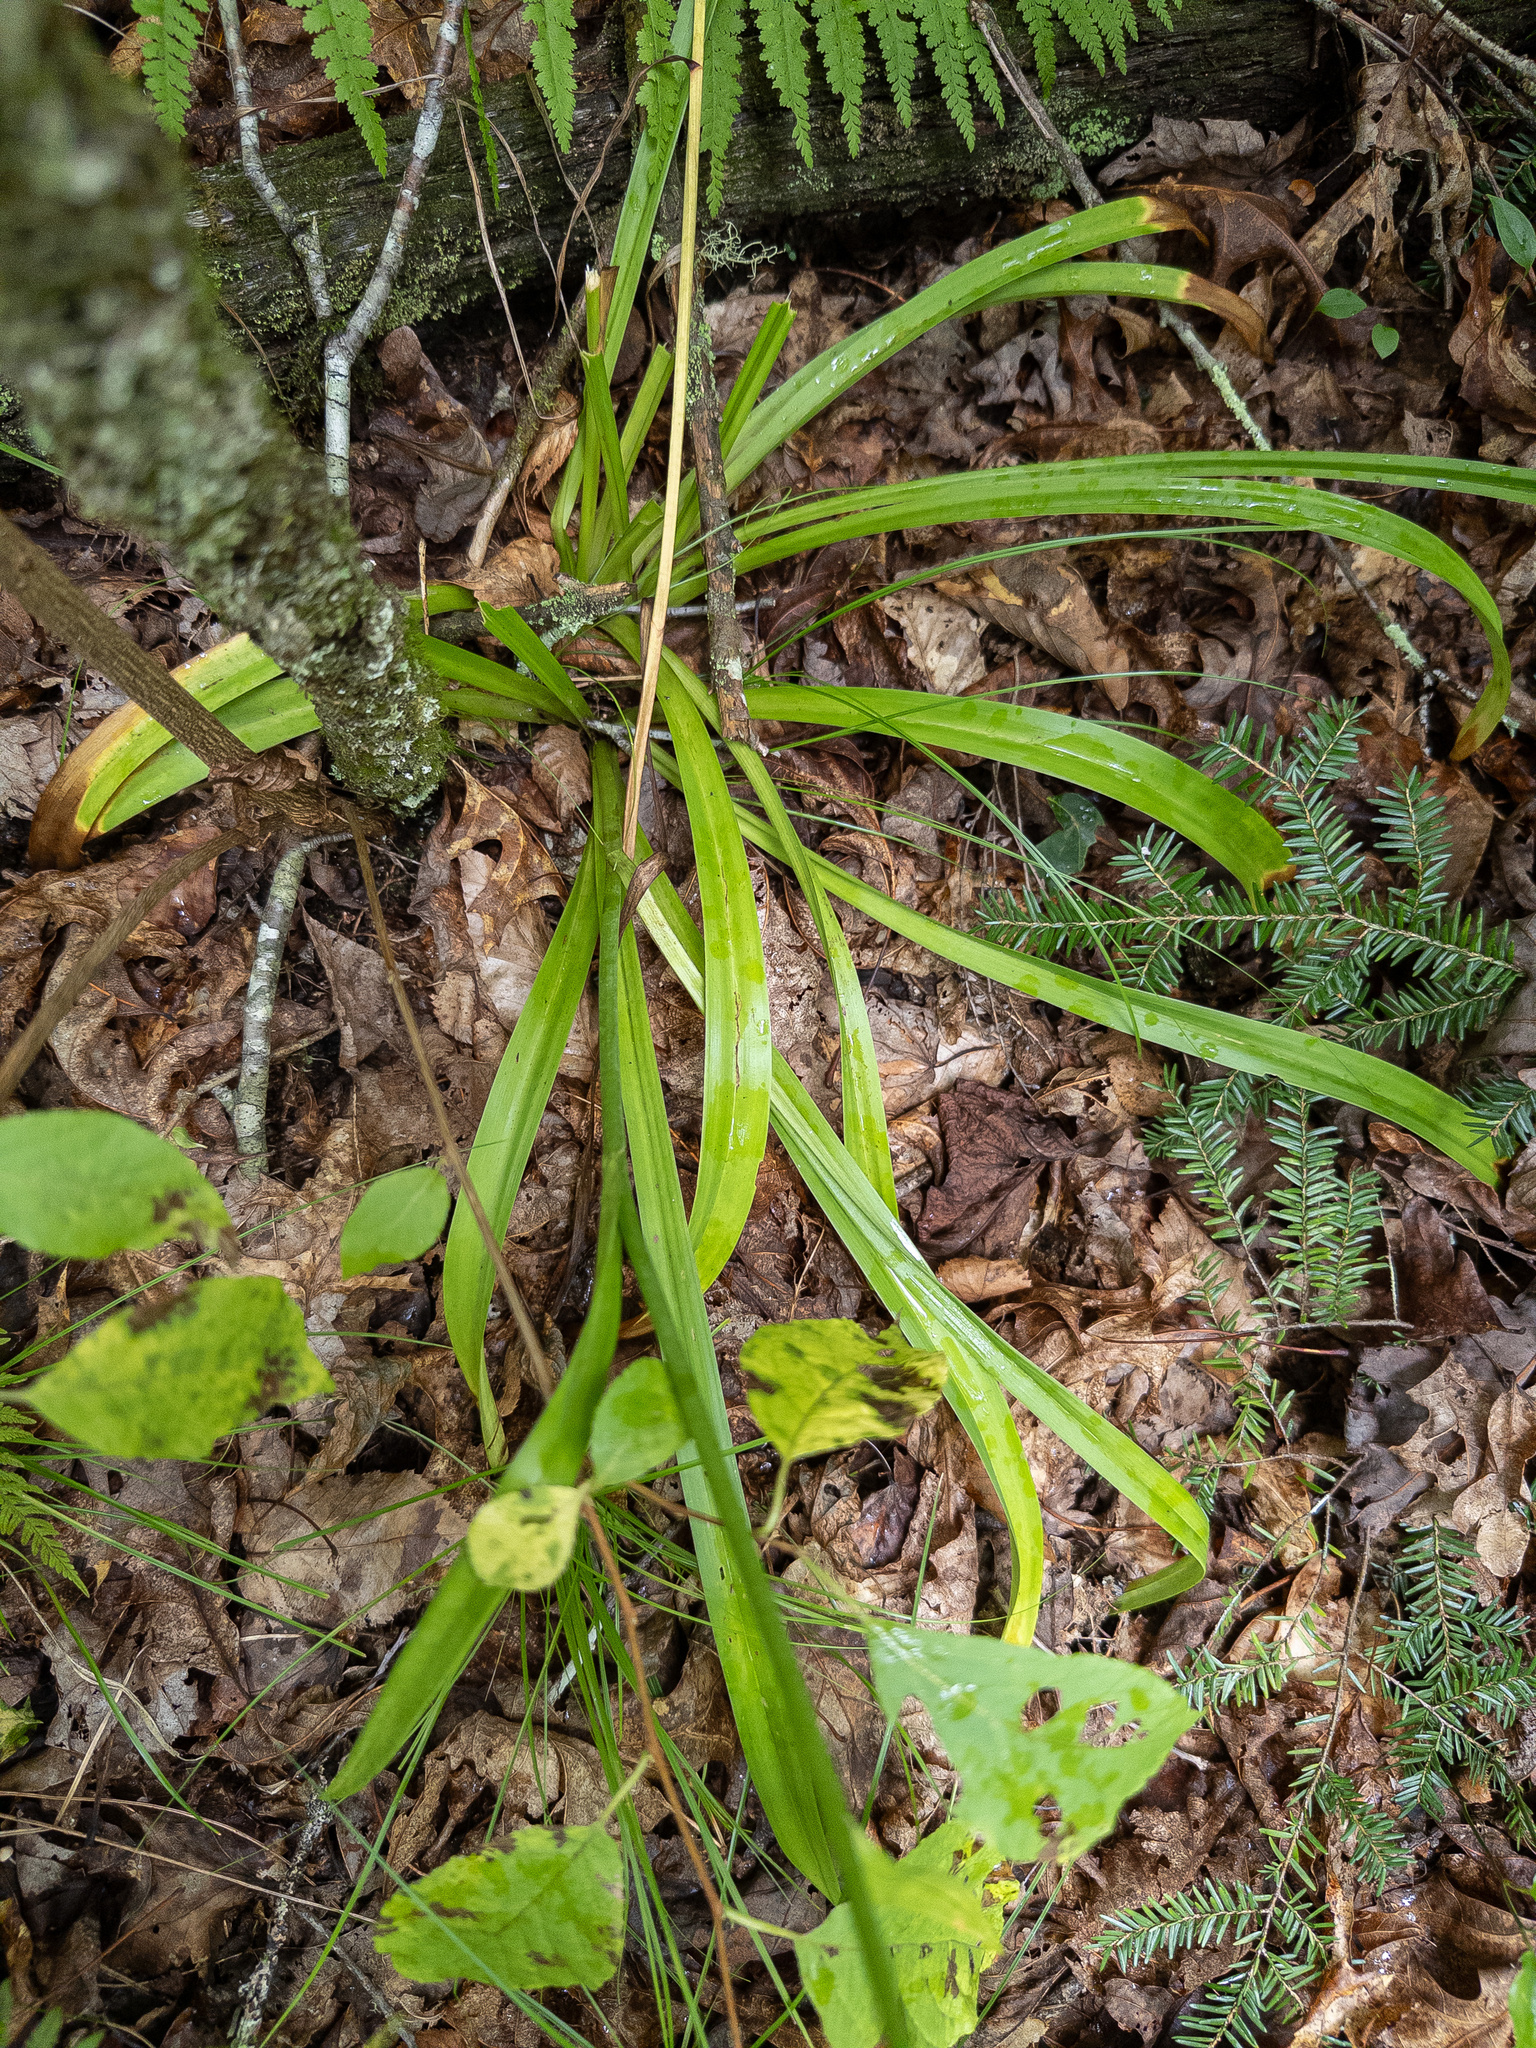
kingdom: Plantae
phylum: Tracheophyta
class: Liliopsida
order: Liliales
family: Melanthiaceae
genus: Amianthium
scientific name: Amianthium muscitoxicum
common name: Fly-poison
